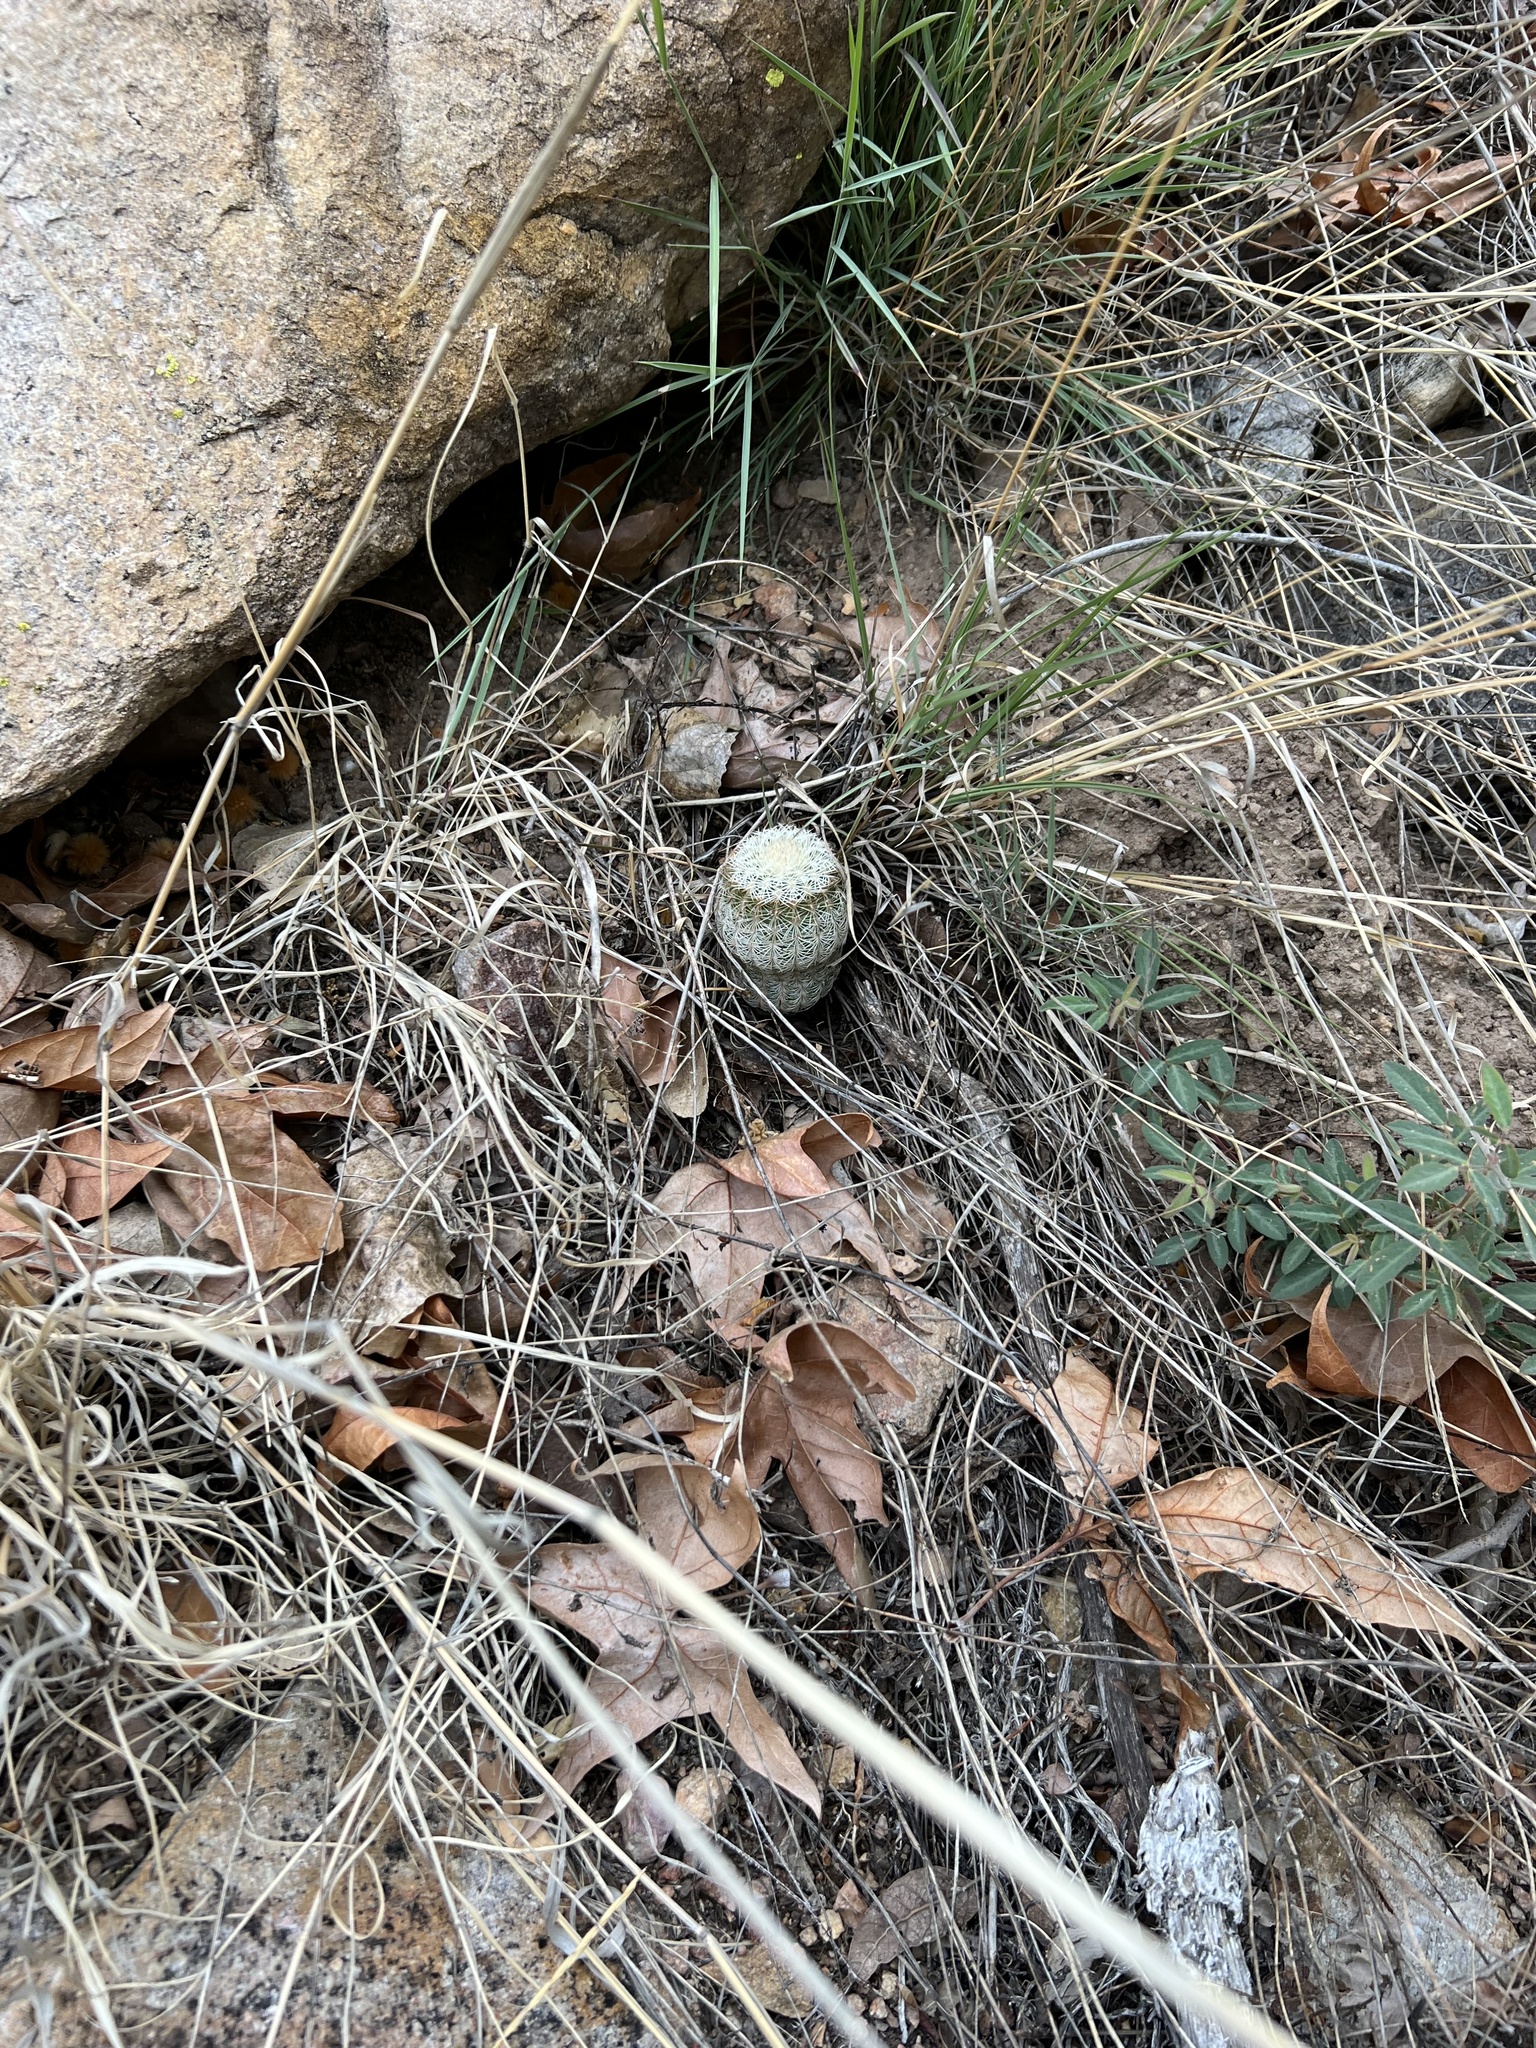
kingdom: Plantae
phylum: Tracheophyta
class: Magnoliopsida
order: Caryophyllales
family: Cactaceae
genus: Echinocereus
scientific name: Echinocereus rigidissimus
